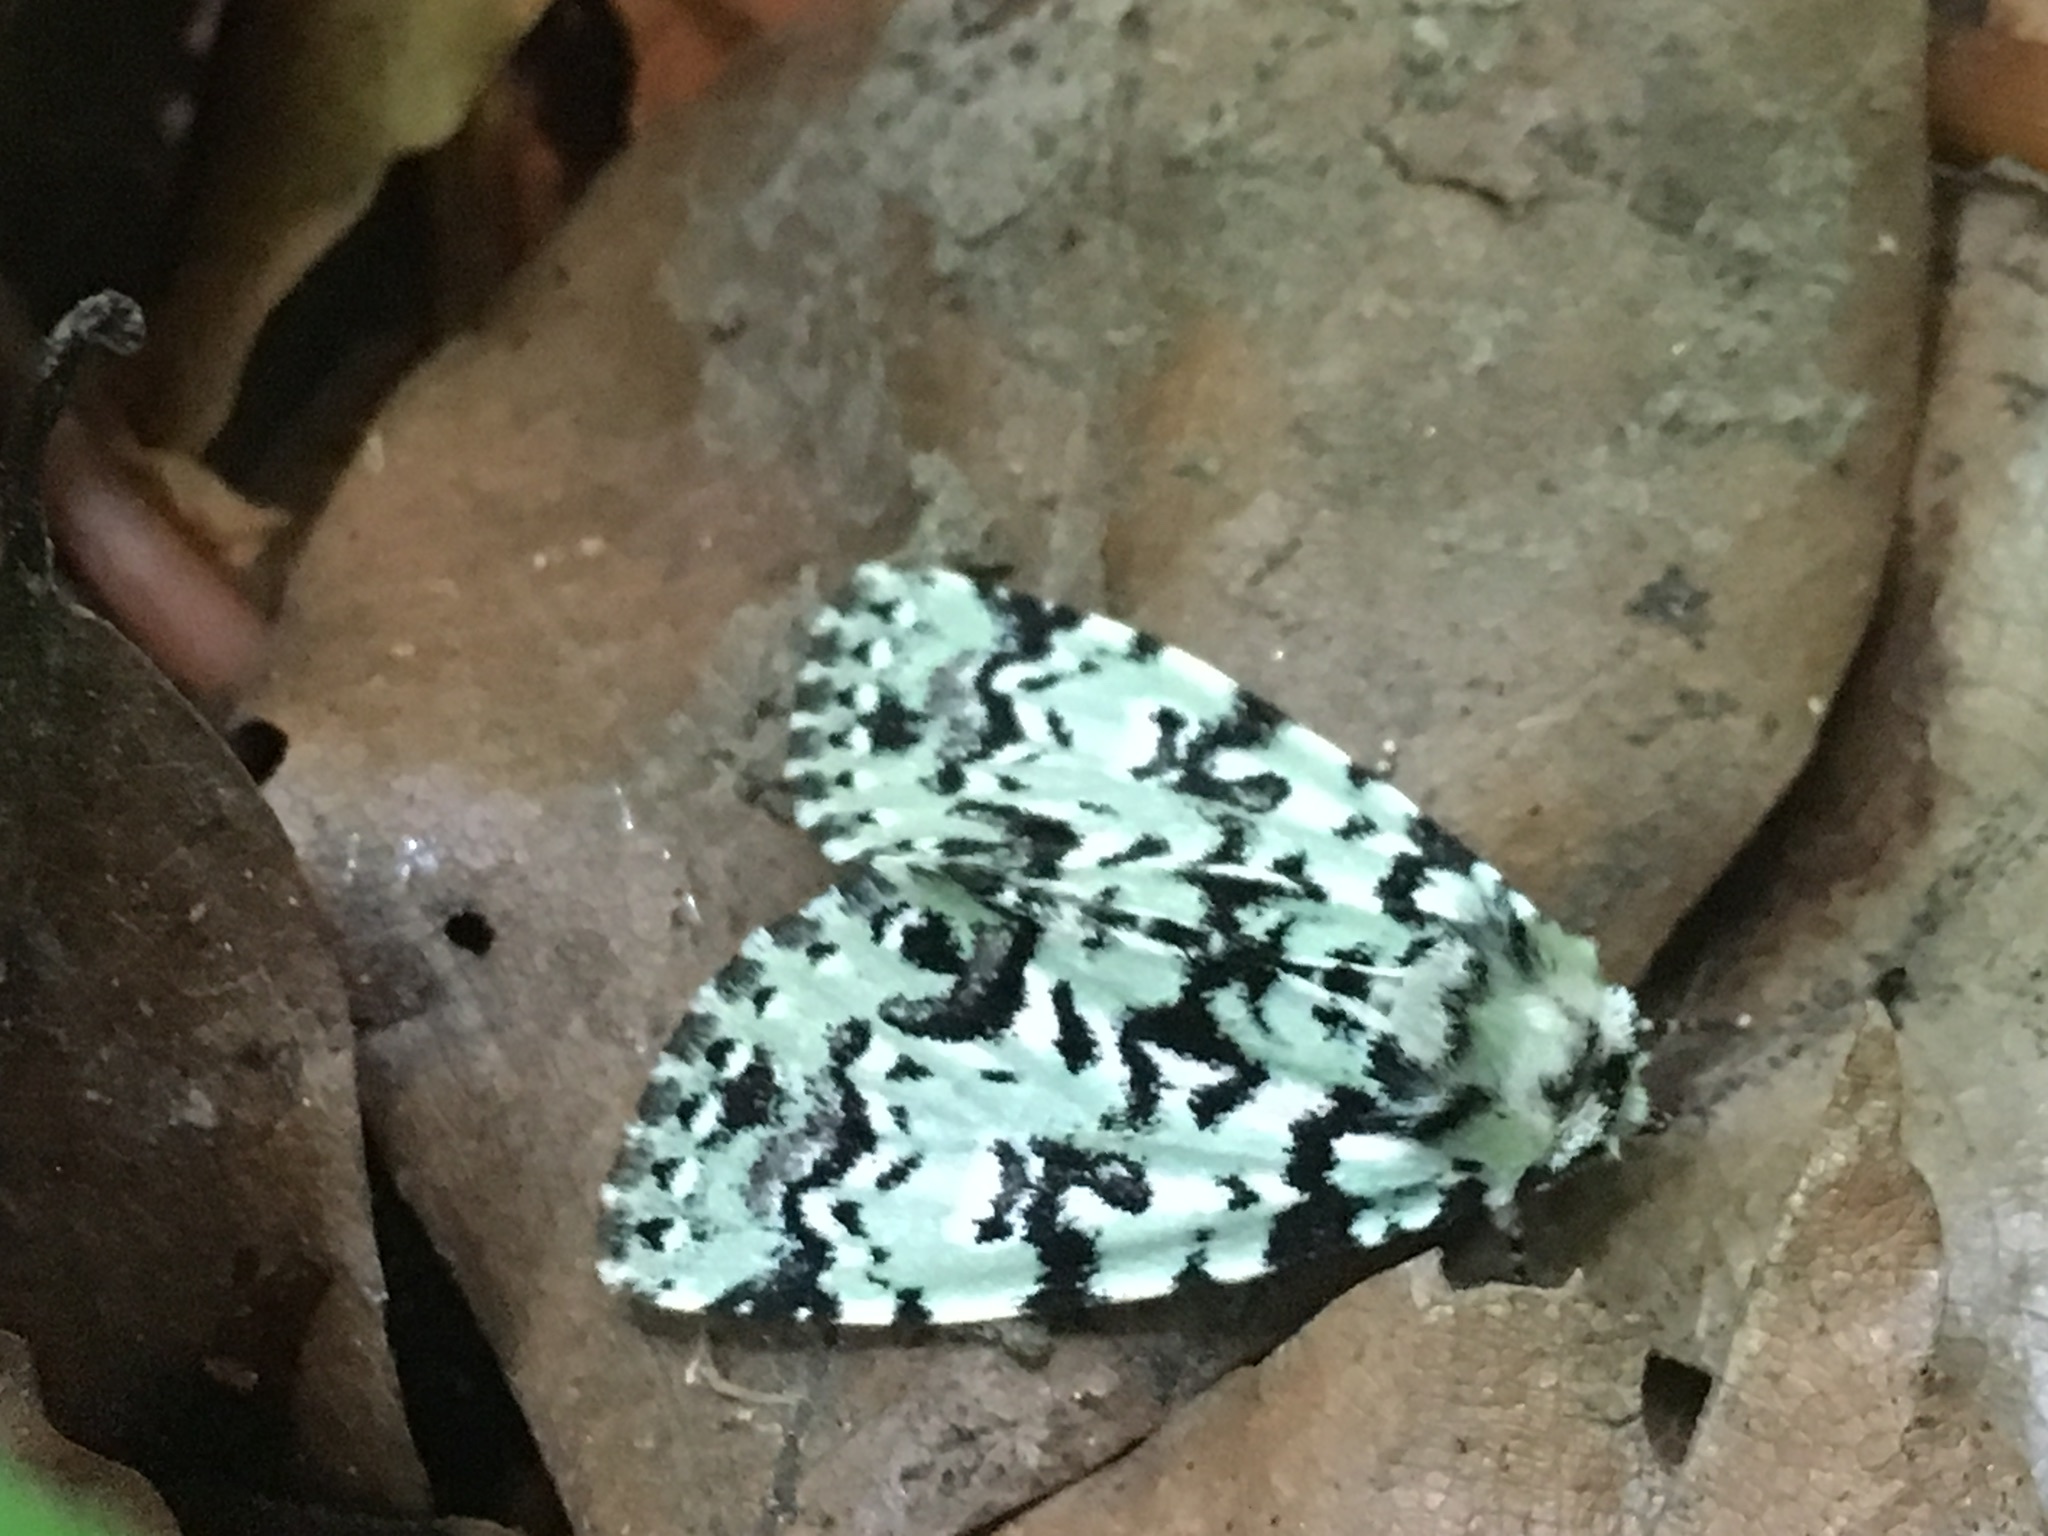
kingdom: Animalia
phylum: Arthropoda
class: Insecta
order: Lepidoptera
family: Noctuidae
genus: Moma
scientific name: Moma alpium
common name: Scarce merveille du jour
